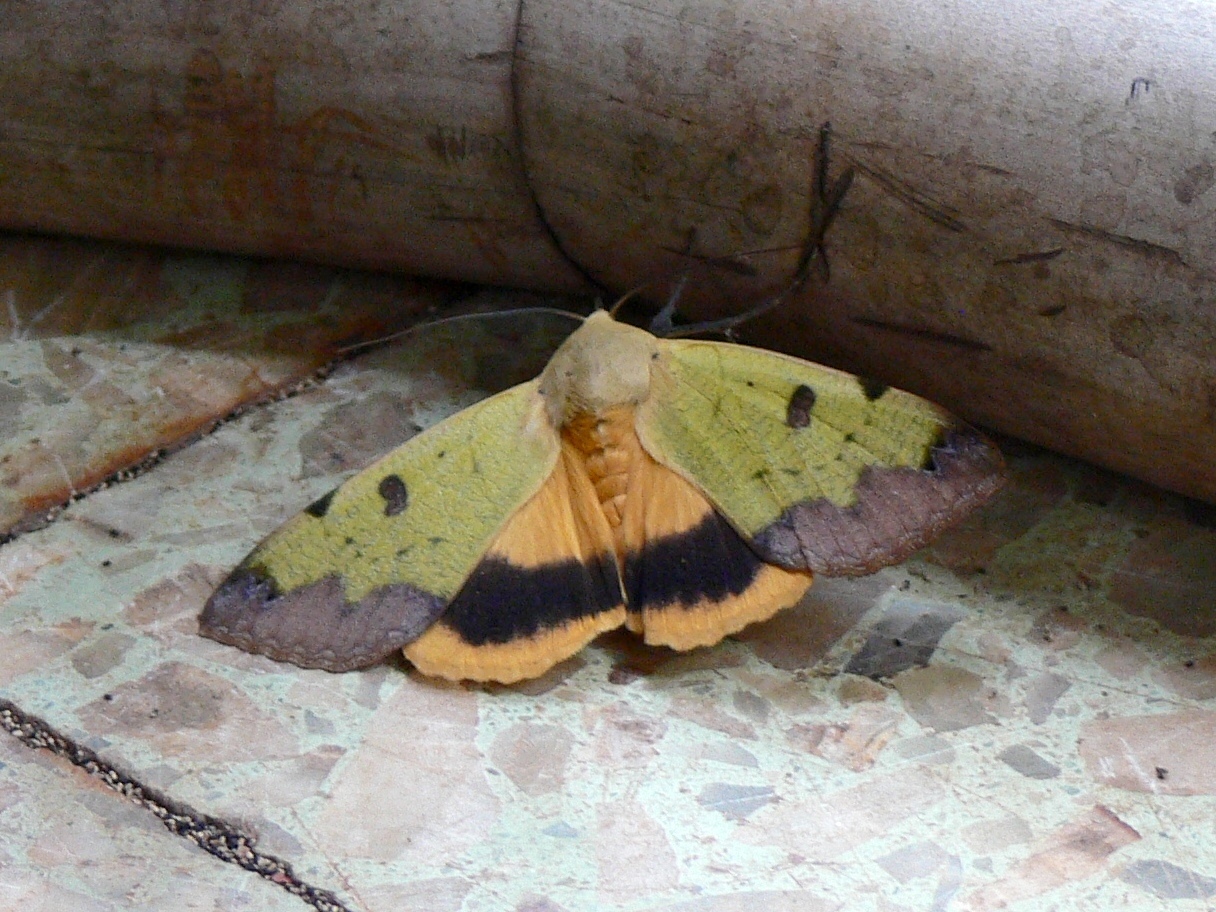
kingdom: Animalia
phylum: Arthropoda
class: Insecta
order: Lepidoptera
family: Erebidae
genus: Ophiusa
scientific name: Ophiusa tirhaca
